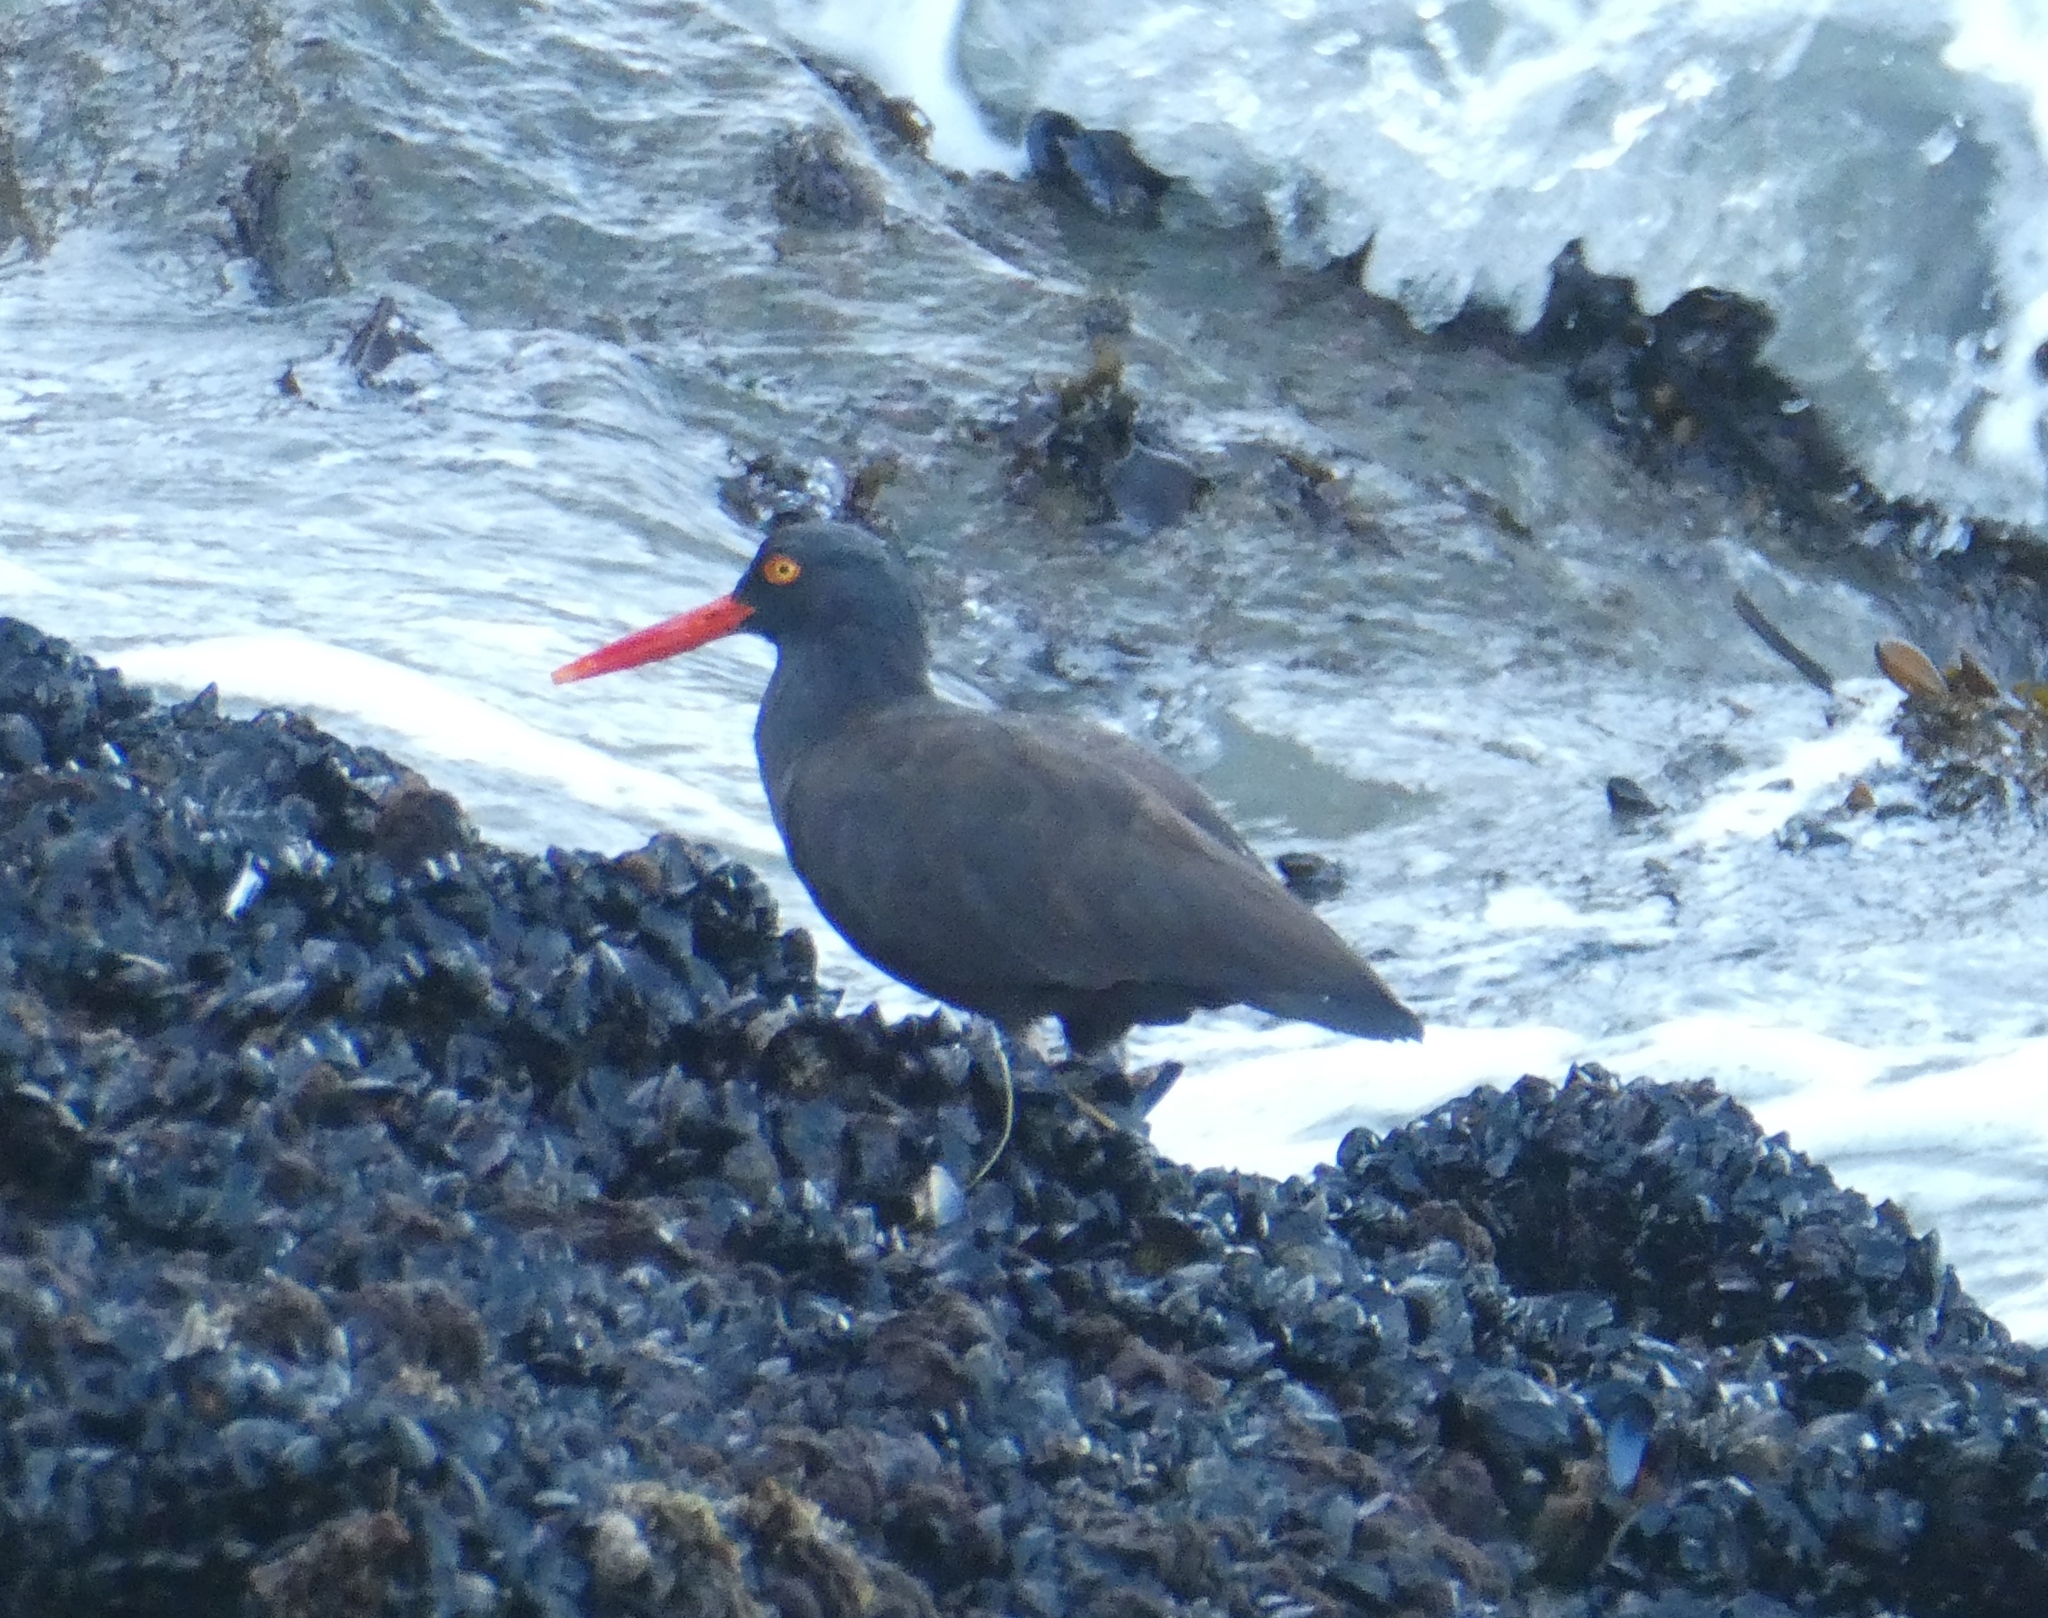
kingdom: Animalia
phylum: Chordata
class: Aves
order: Charadriiformes
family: Haematopodidae
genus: Haematopus
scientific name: Haematopus bachmani
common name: Black oystercatcher
